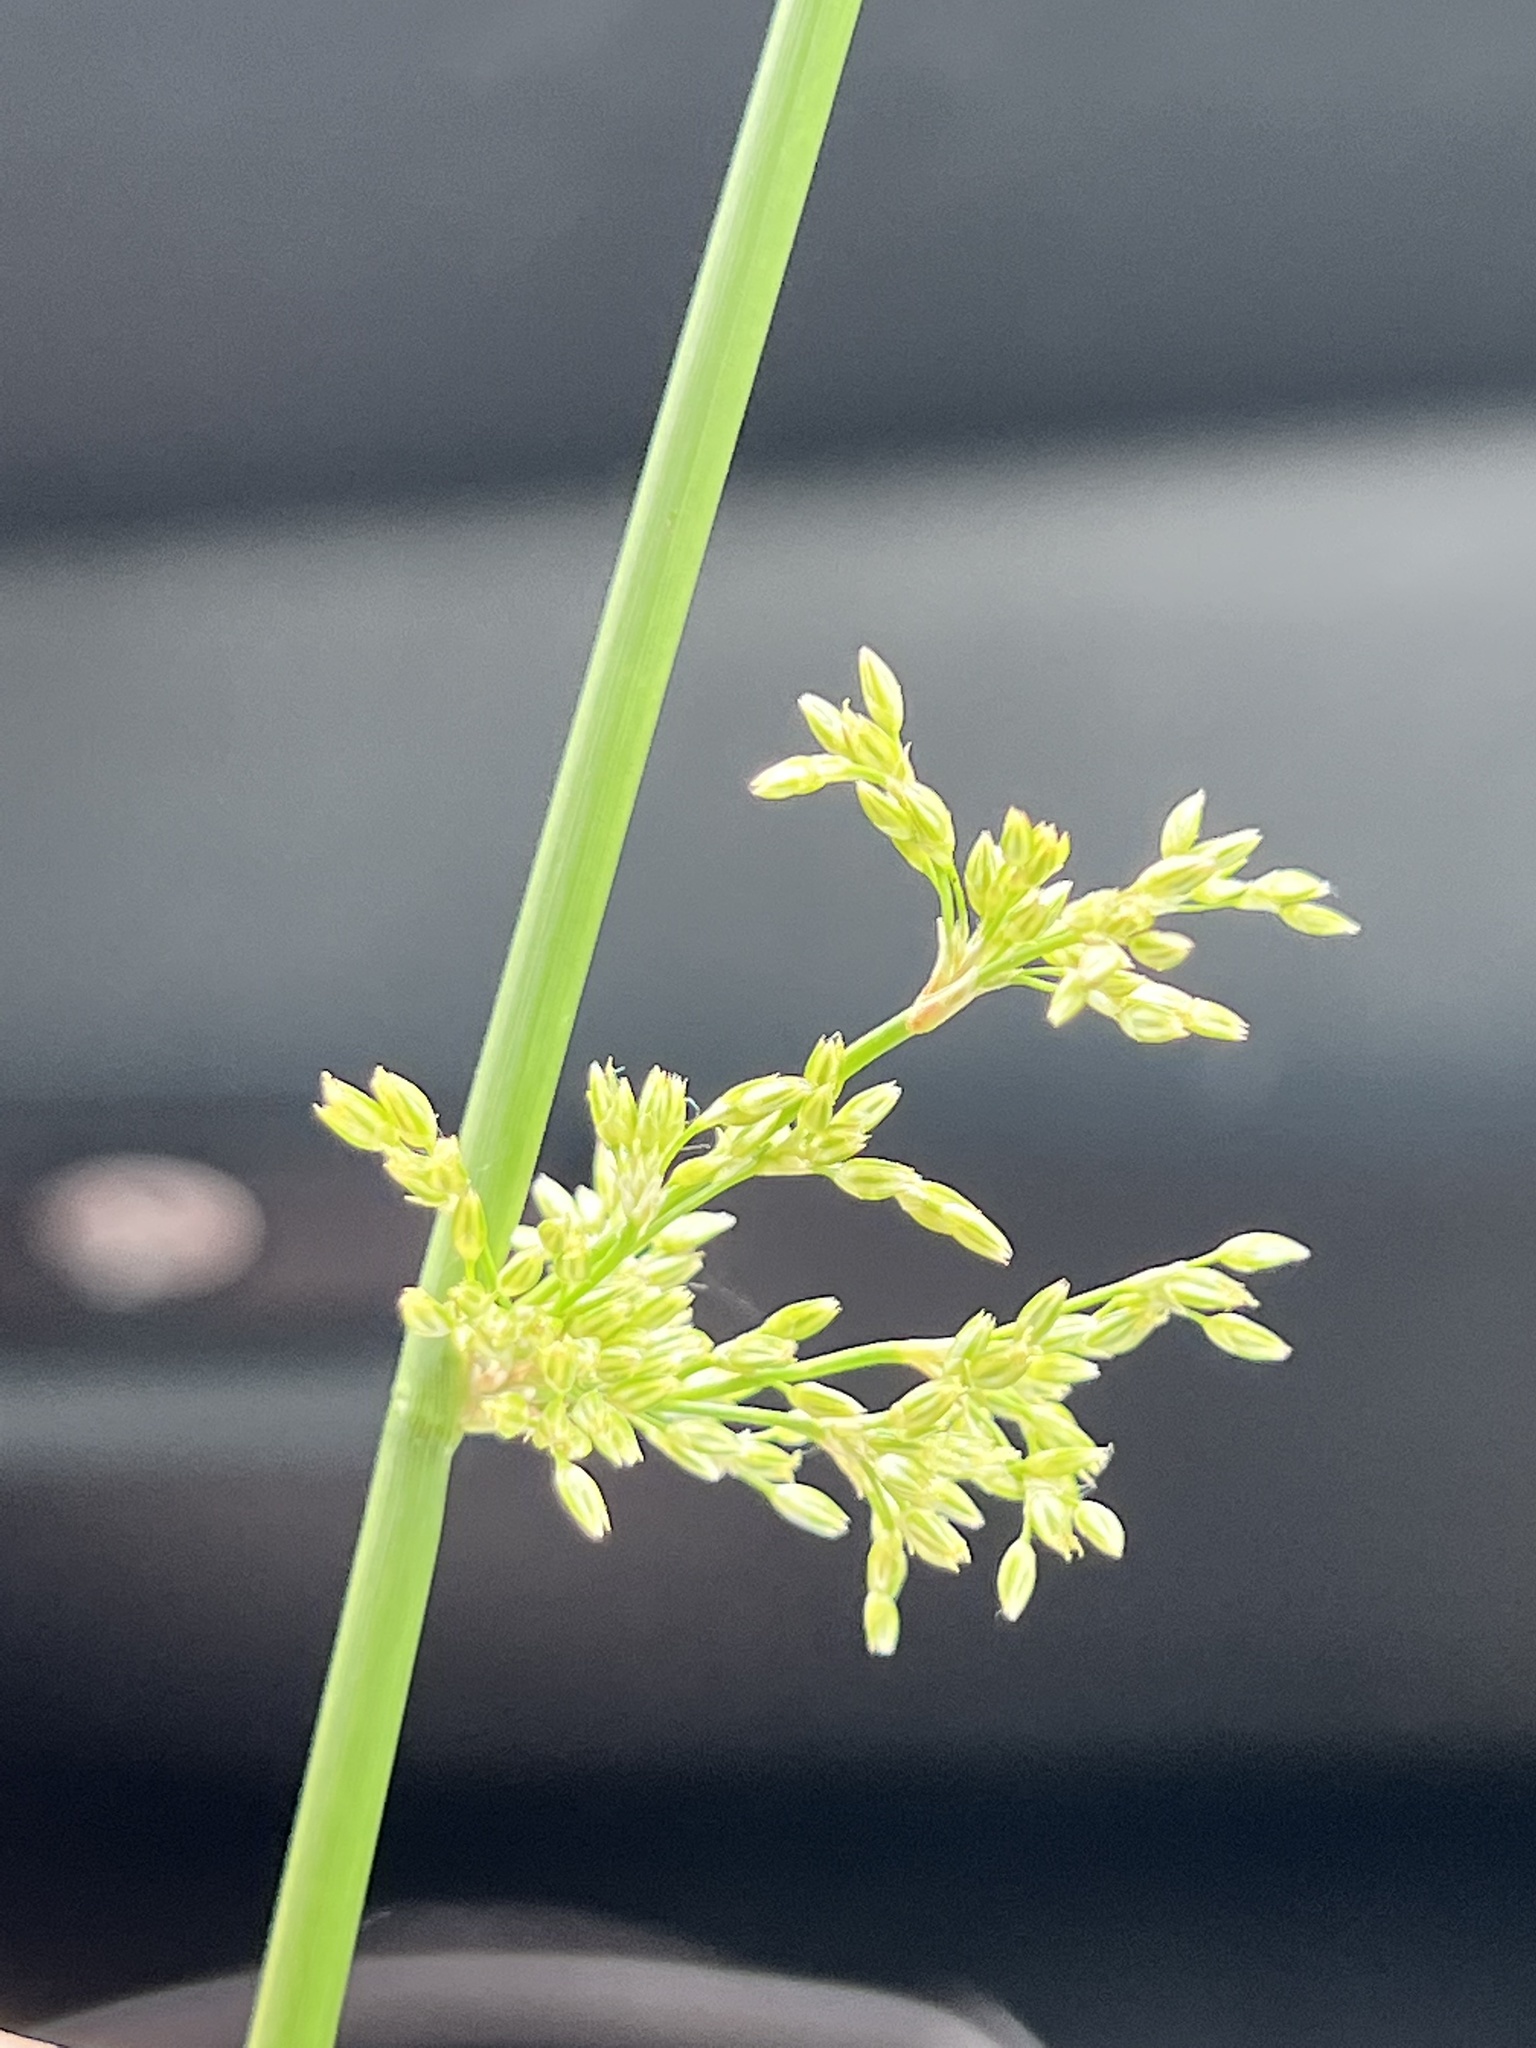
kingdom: Plantae
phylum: Tracheophyta
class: Liliopsida
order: Poales
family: Juncaceae
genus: Juncus
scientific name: Juncus effusus
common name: Soft rush
